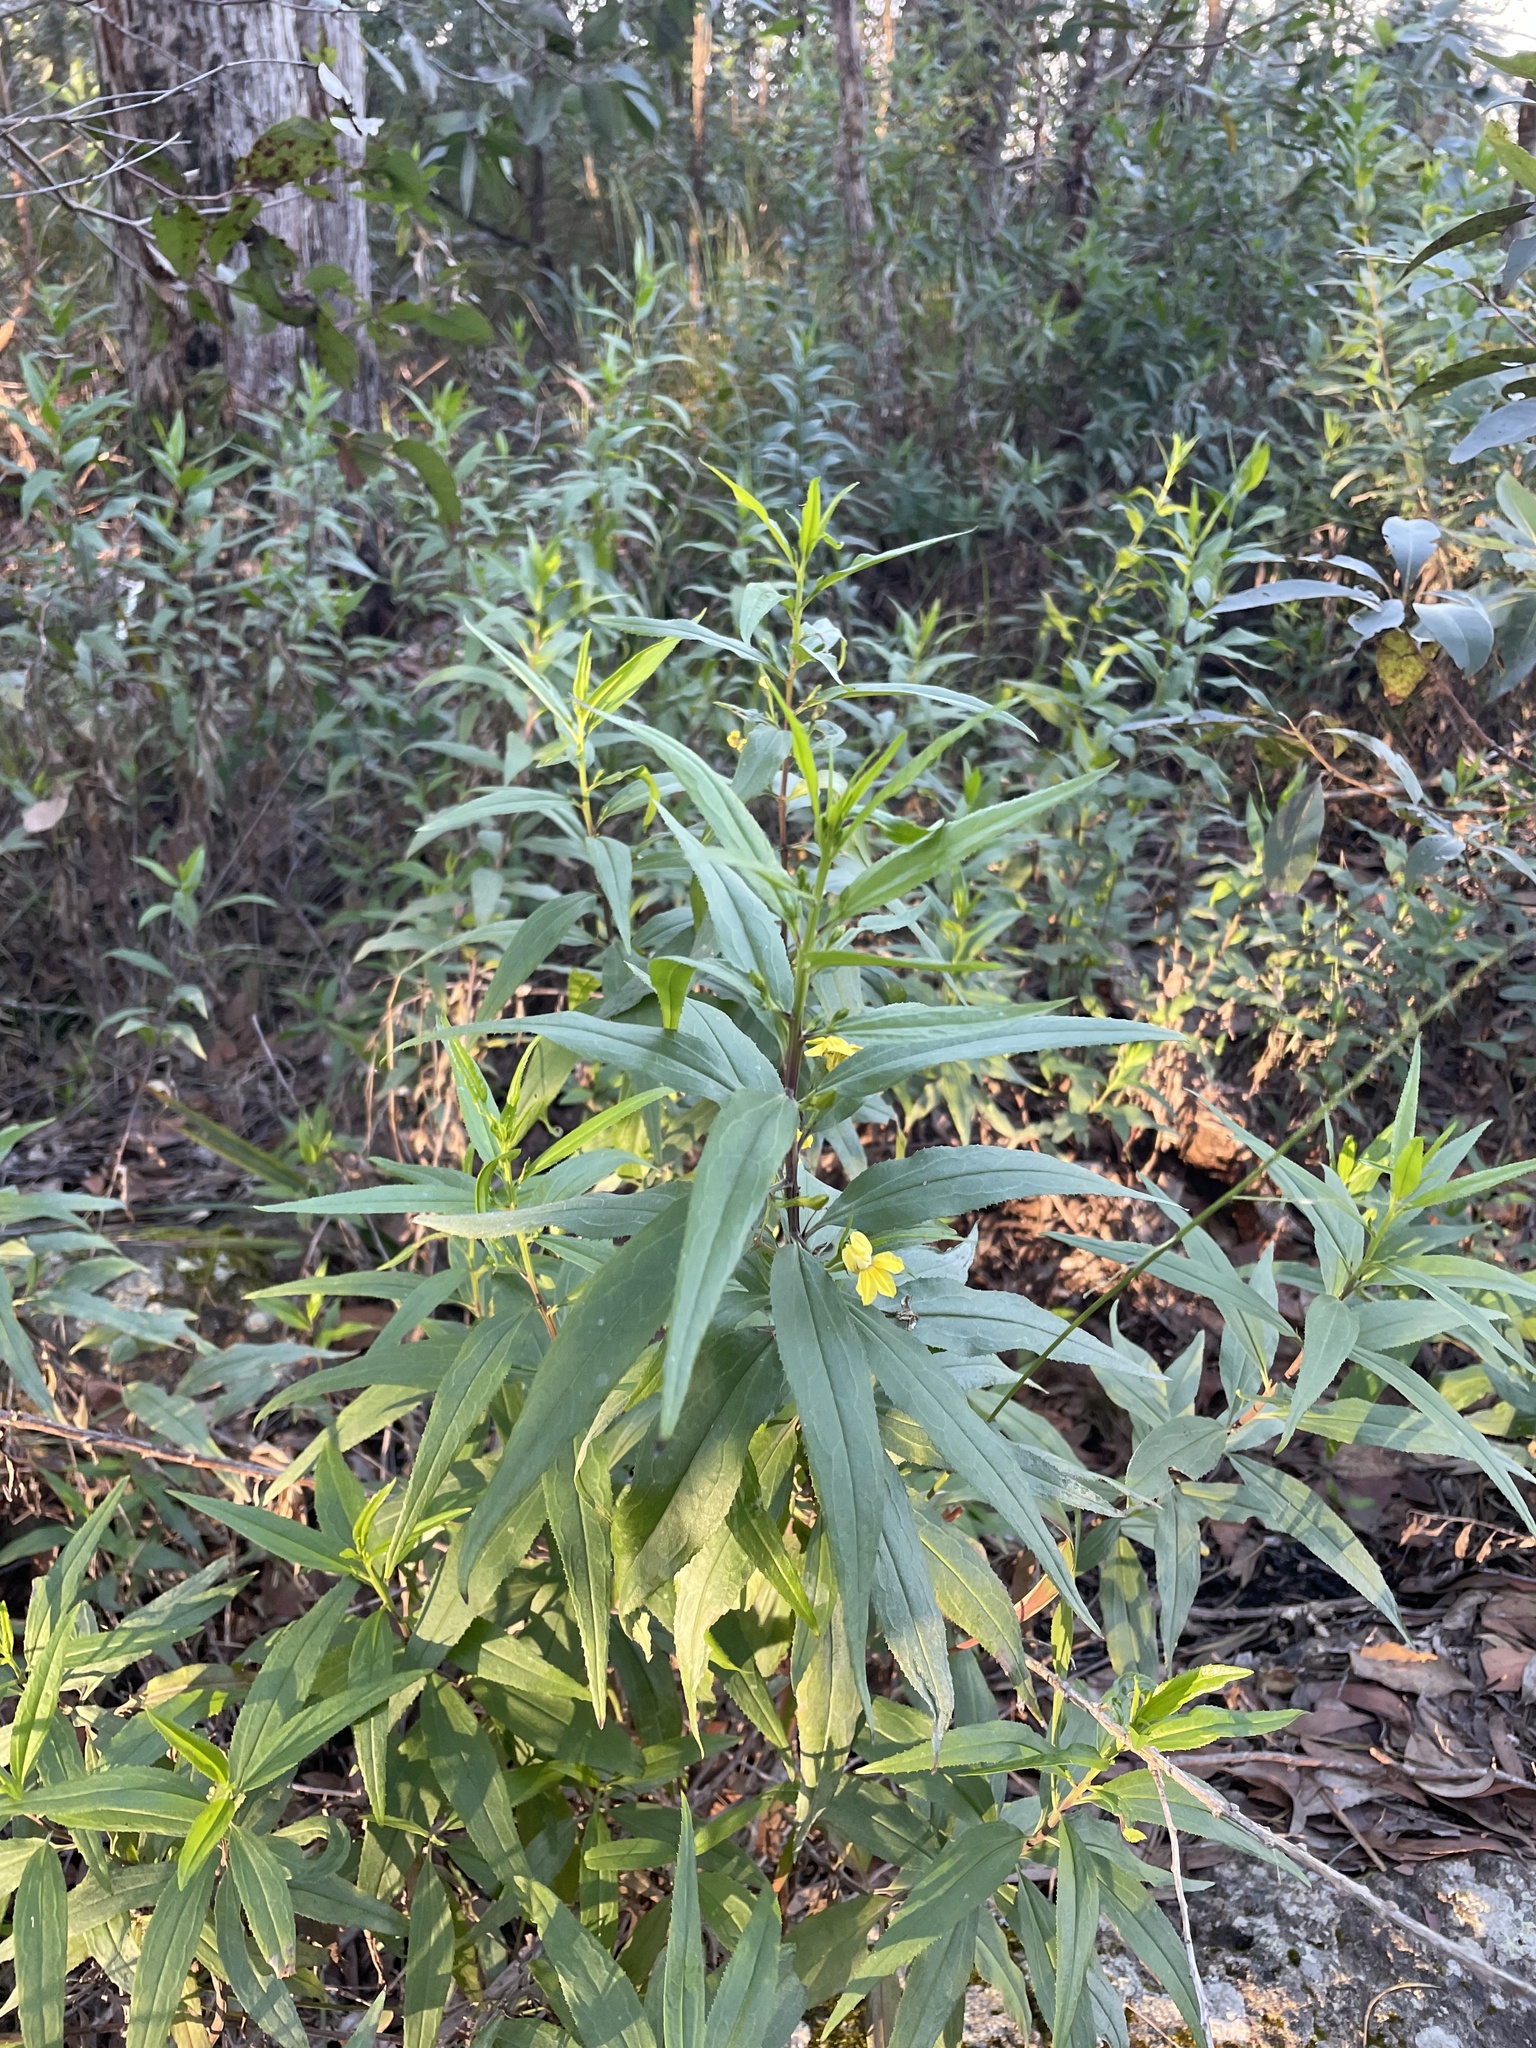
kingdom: Plantae
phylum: Tracheophyta
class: Magnoliopsida
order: Asterales
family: Goodeniaceae
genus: Goodenia
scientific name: Goodenia ovata
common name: Hop goodenia
